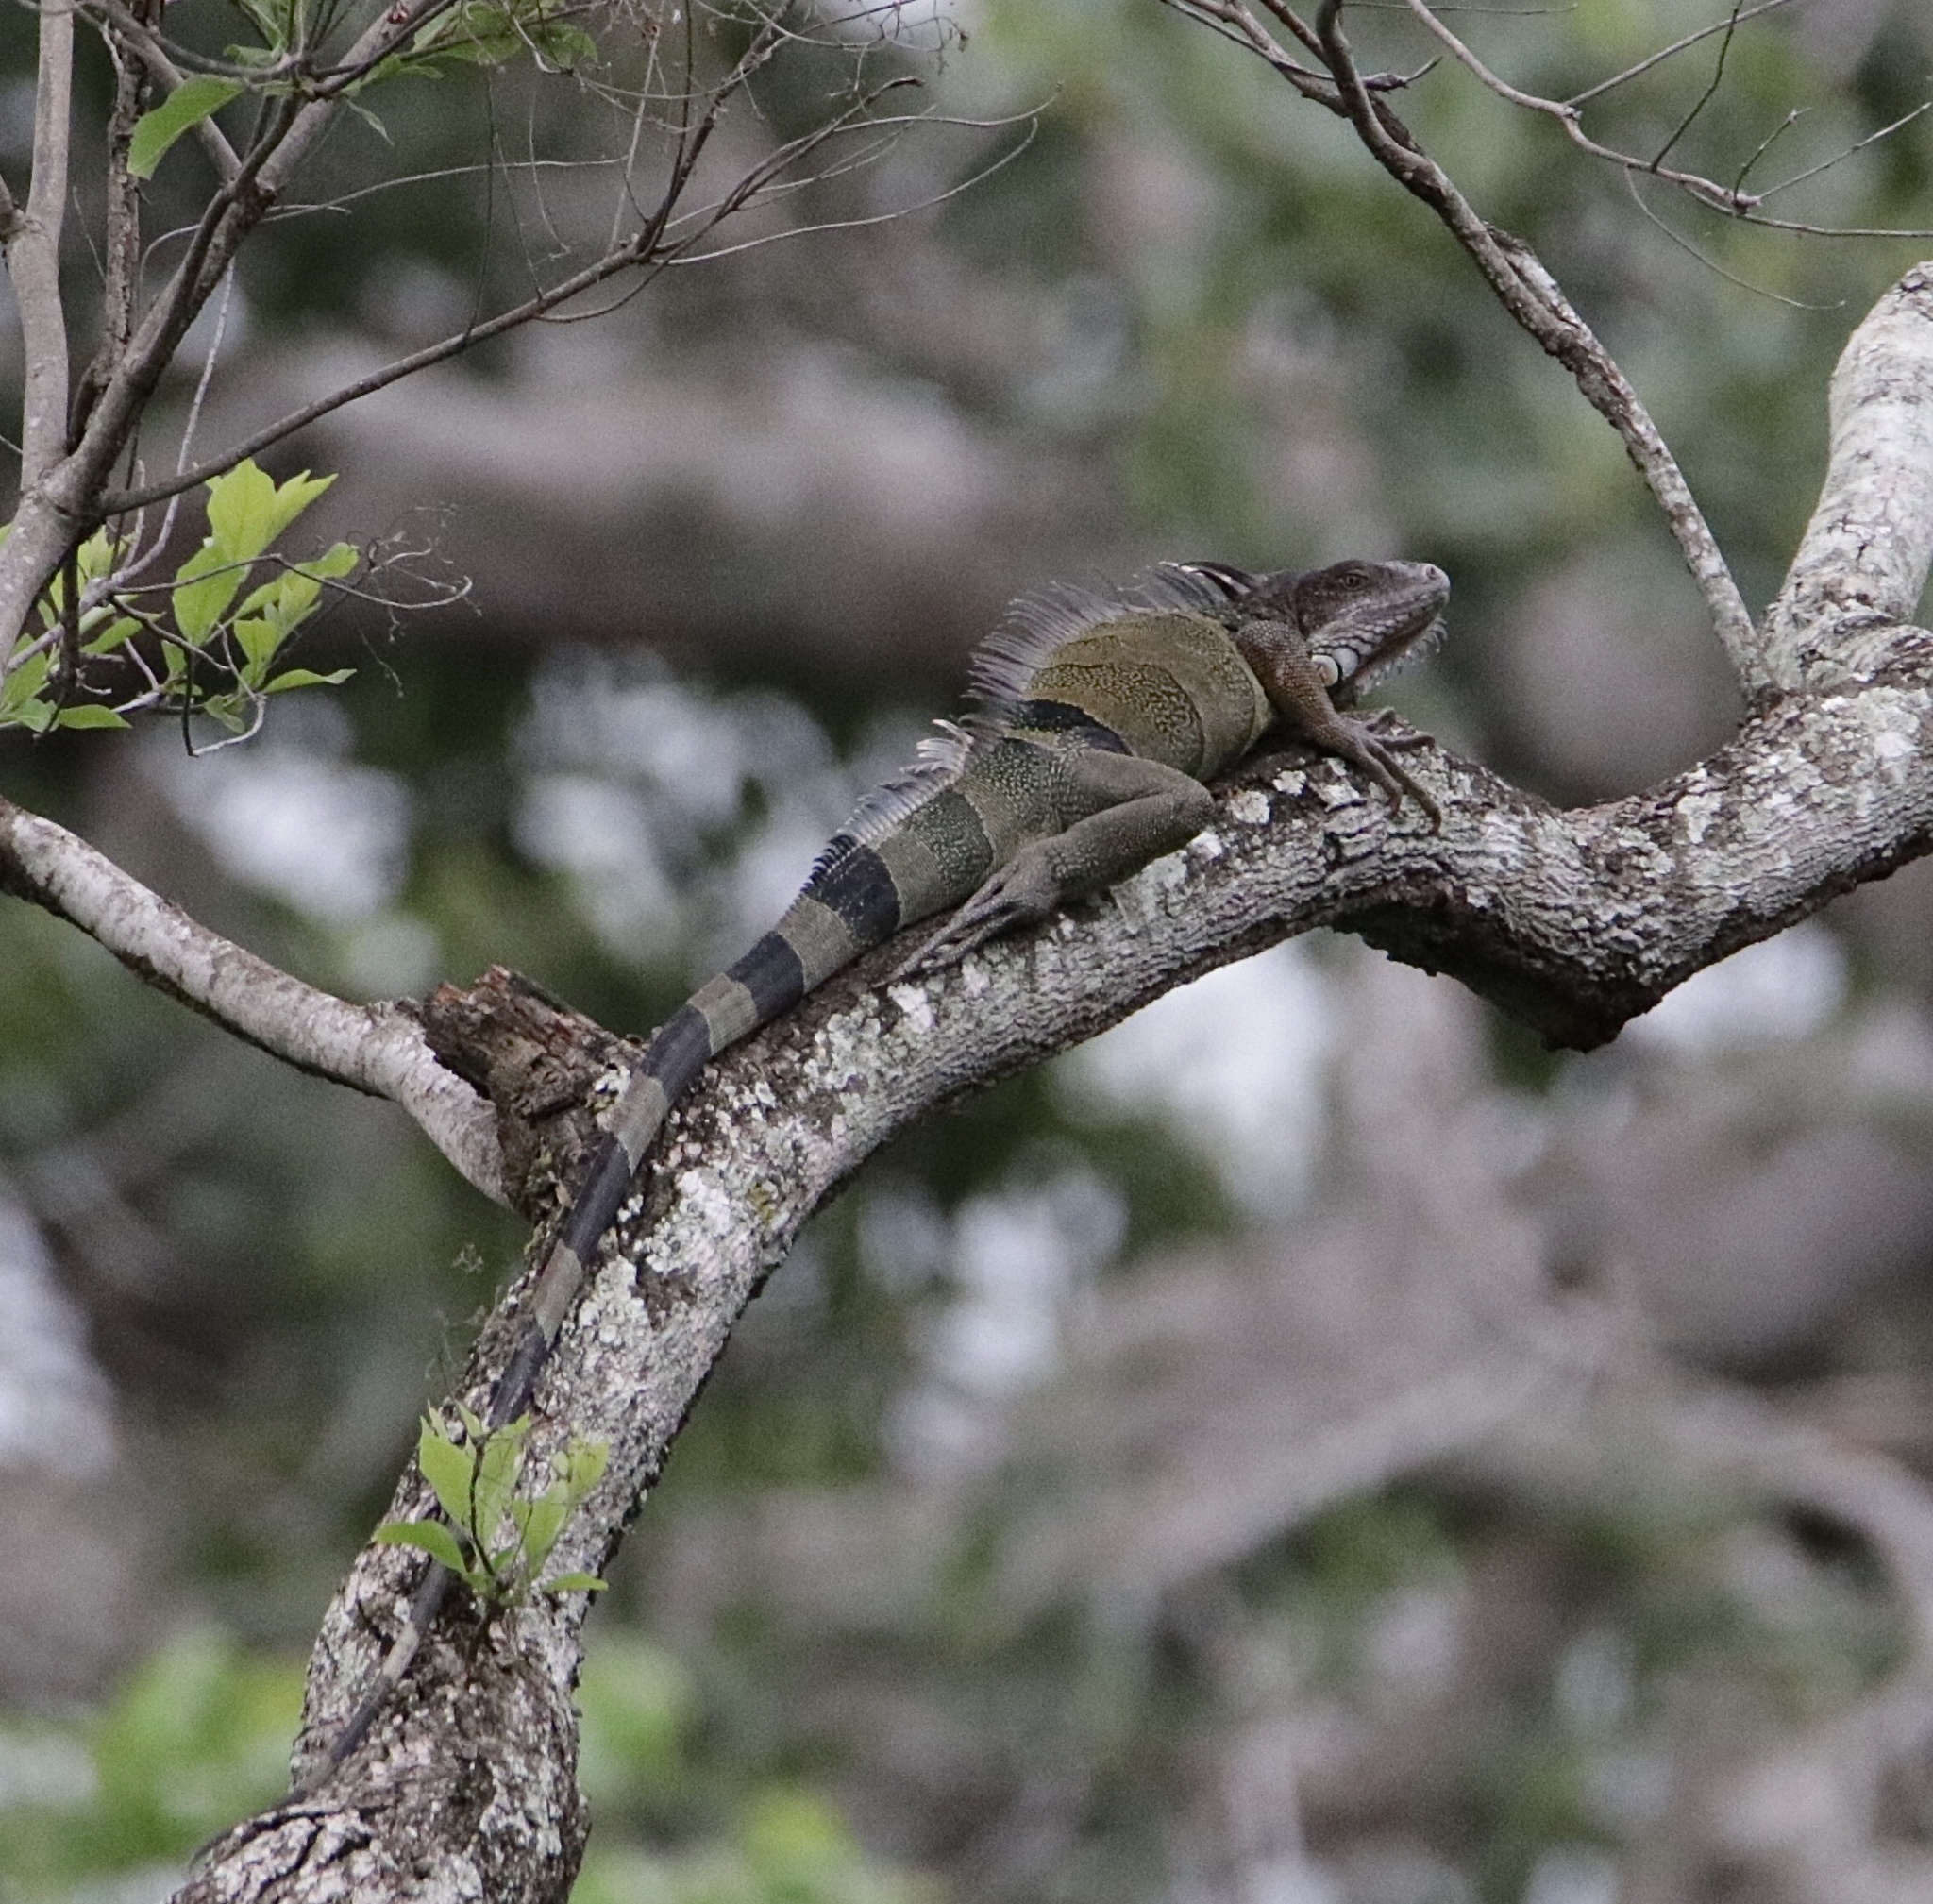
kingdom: Animalia
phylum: Chordata
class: Squamata
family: Iguanidae
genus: Iguana
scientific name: Iguana iguana
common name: Green iguana
